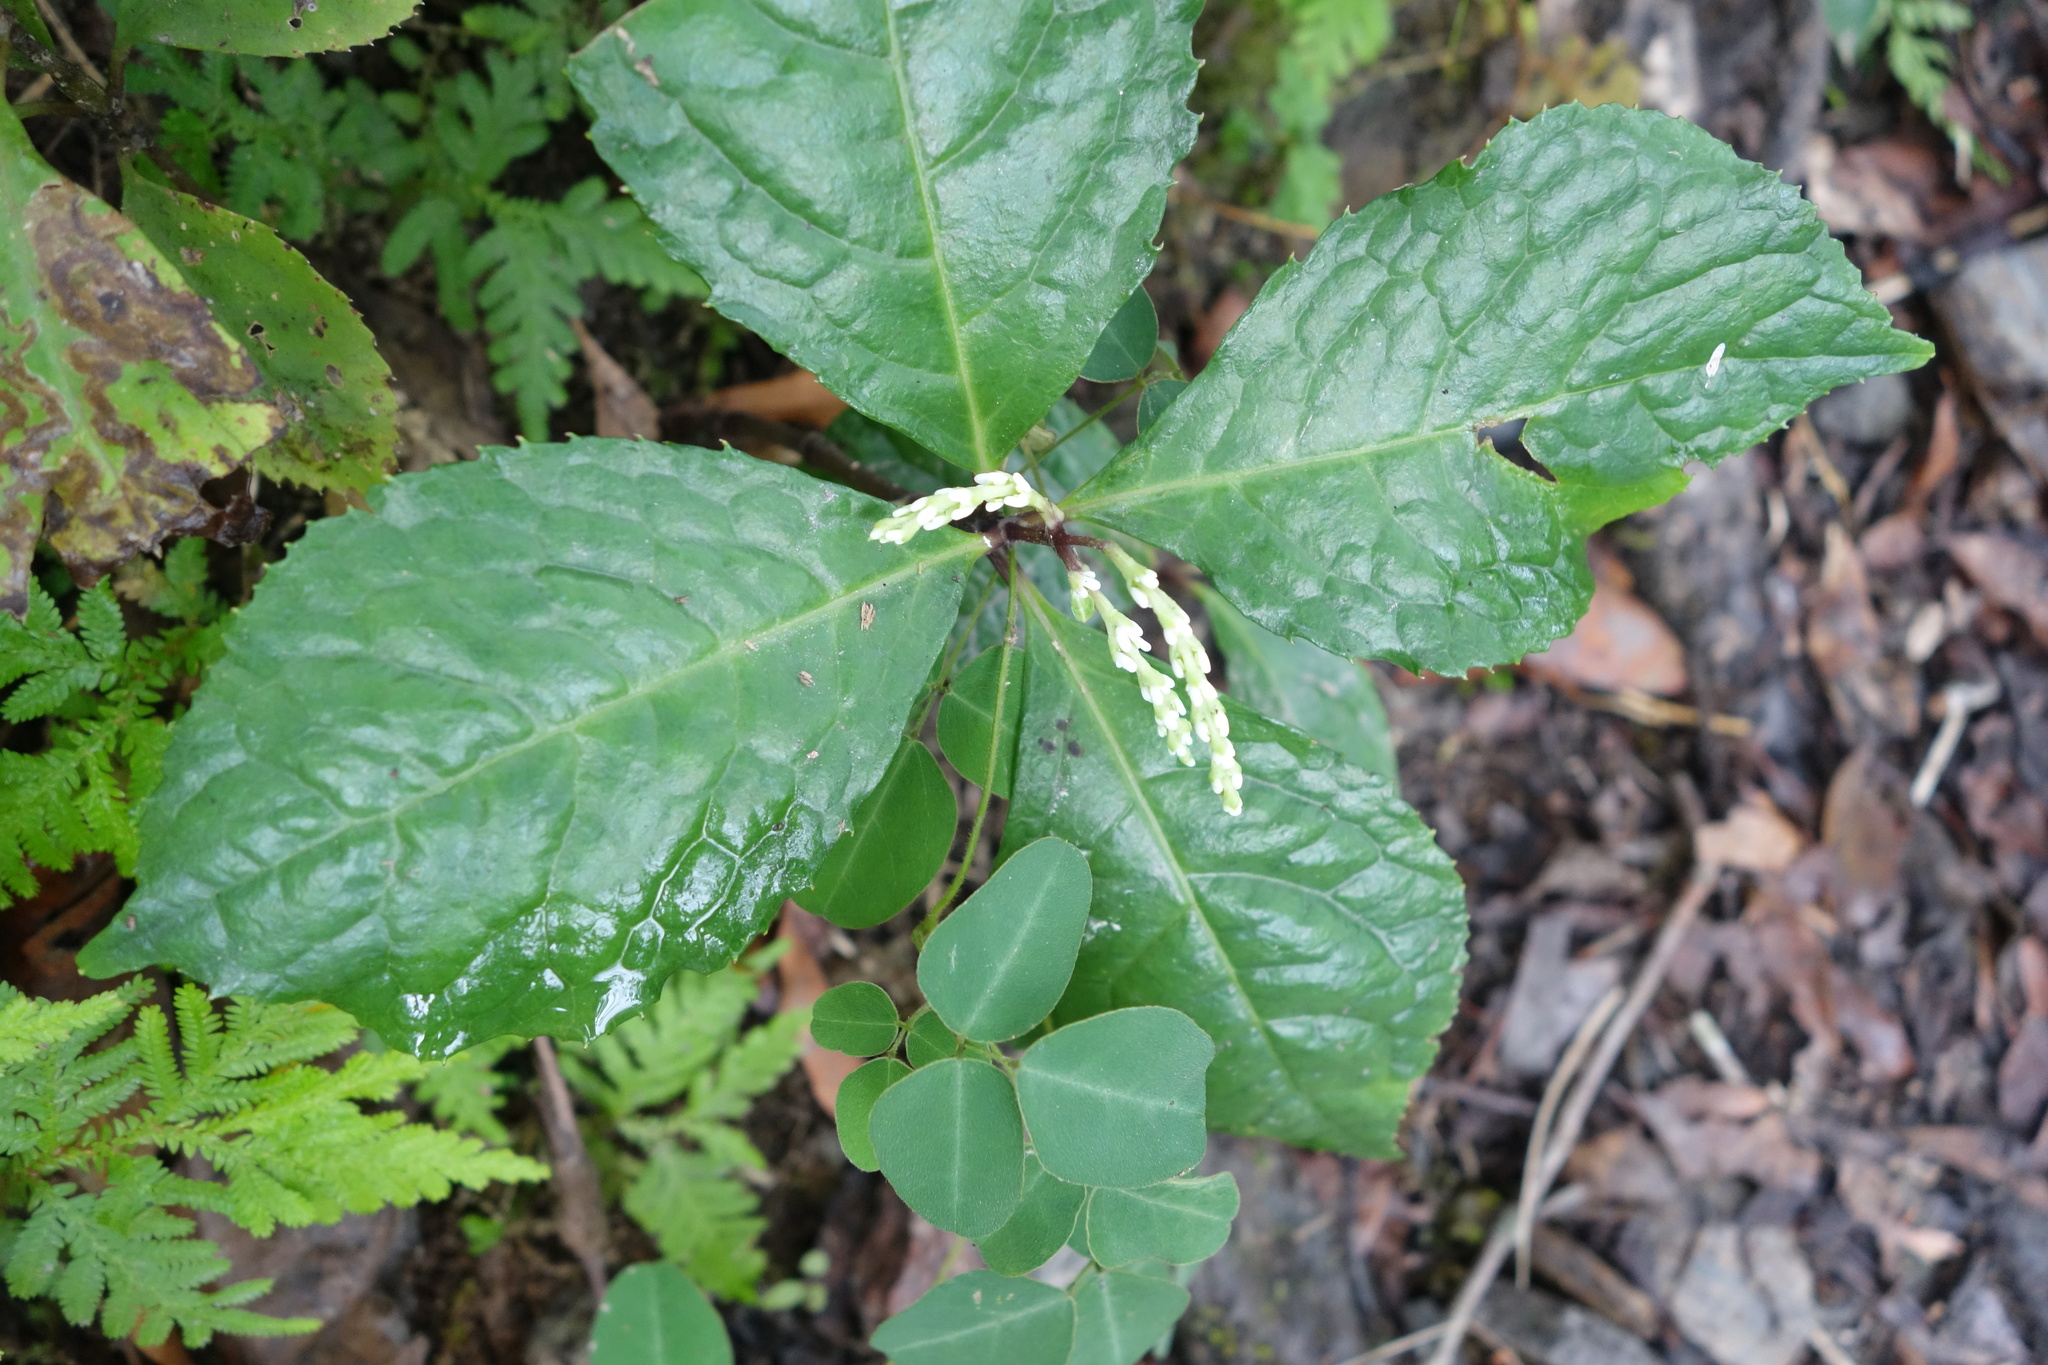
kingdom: Plantae
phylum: Tracheophyta
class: Magnoliopsida
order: Chloranthales
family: Chloranthaceae
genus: Chloranthus
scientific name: Chloranthus oldhamii
